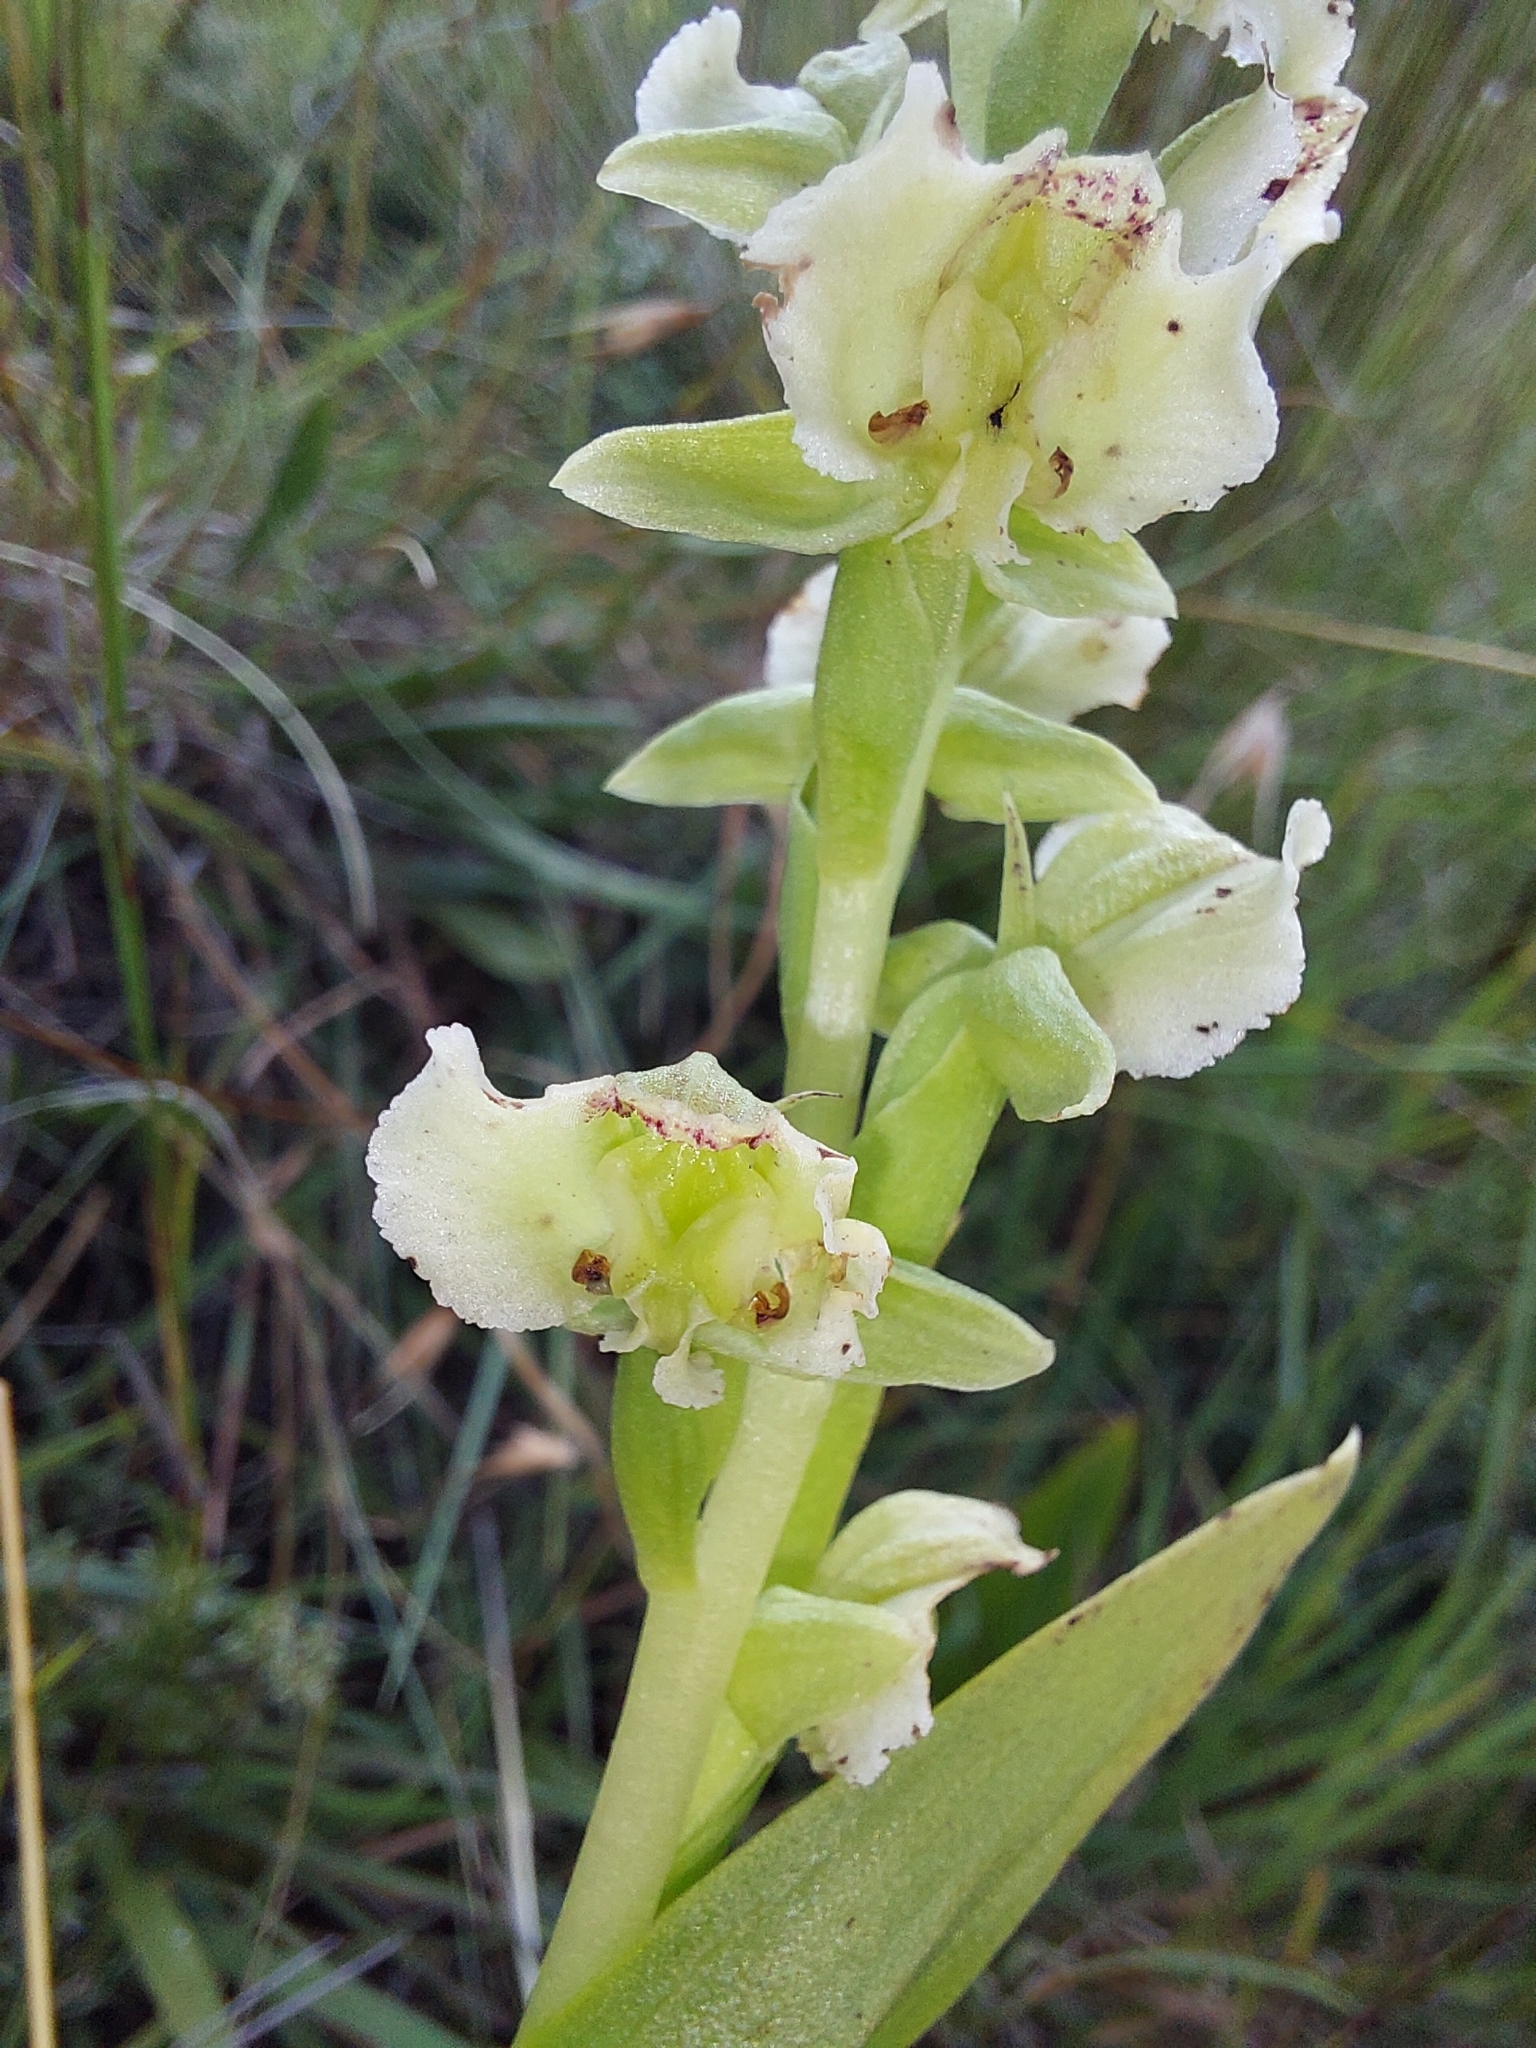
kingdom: Plantae
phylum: Tracheophyta
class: Liliopsida
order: Asparagales
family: Orchidaceae
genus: Pterygodium
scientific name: Pterygodium hastatum
